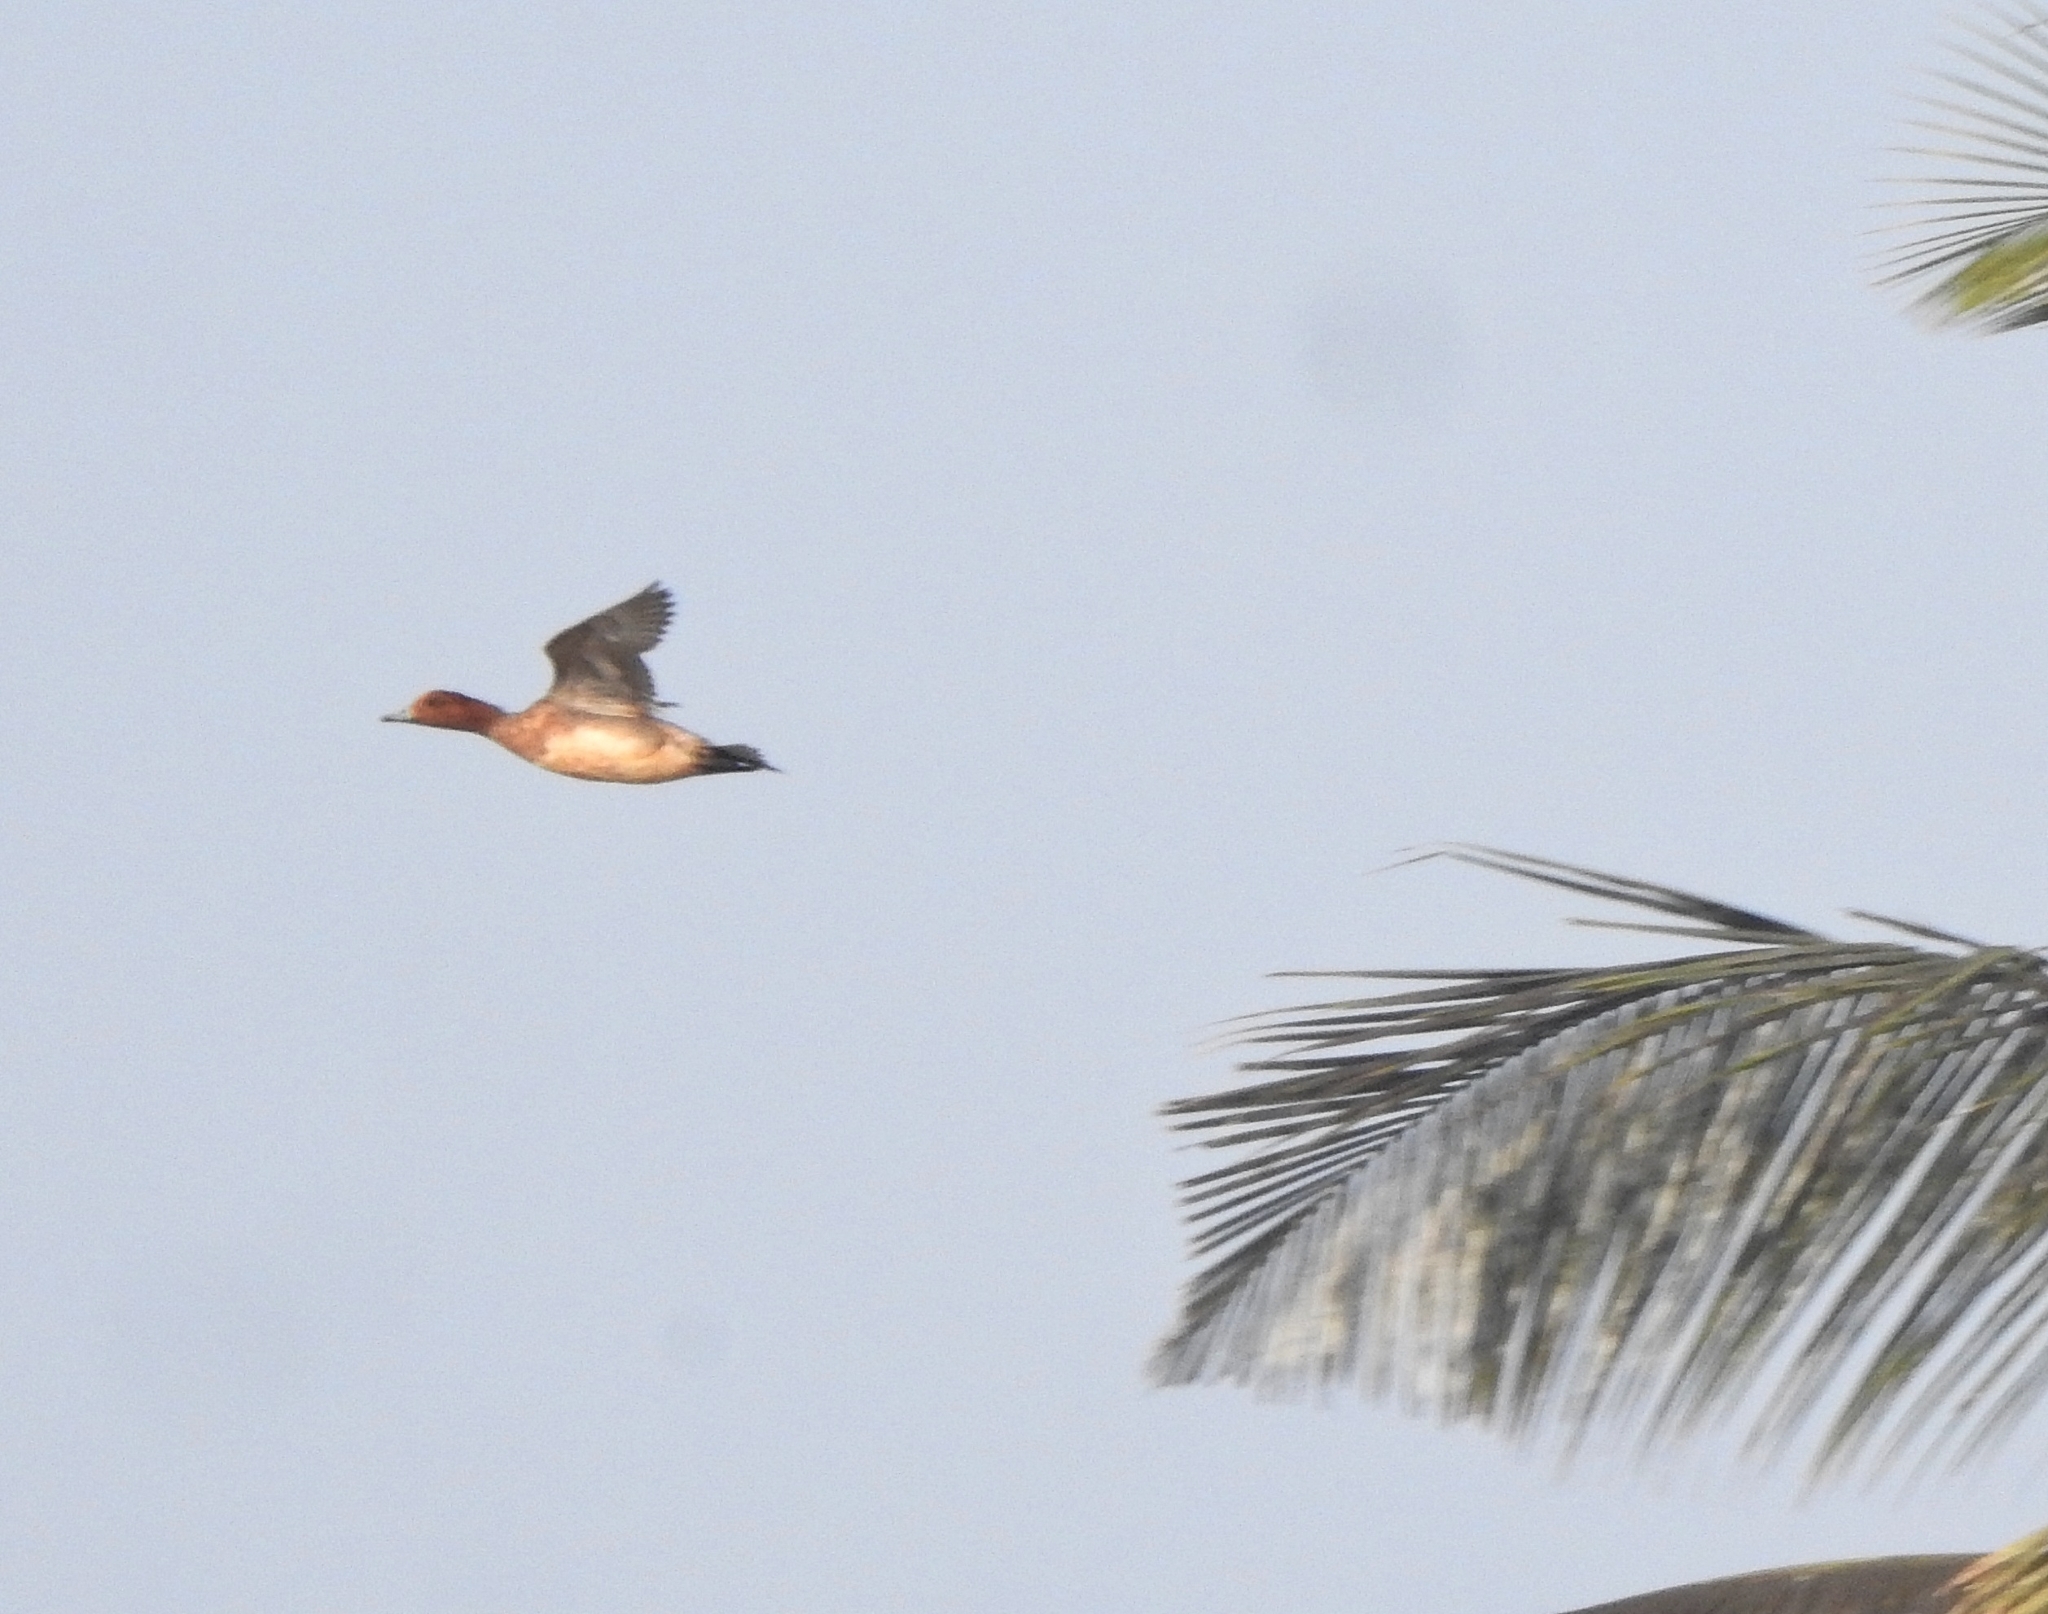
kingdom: Animalia
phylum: Chordata
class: Aves
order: Anseriformes
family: Anatidae
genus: Mareca
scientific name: Mareca penelope
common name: Eurasian wigeon
